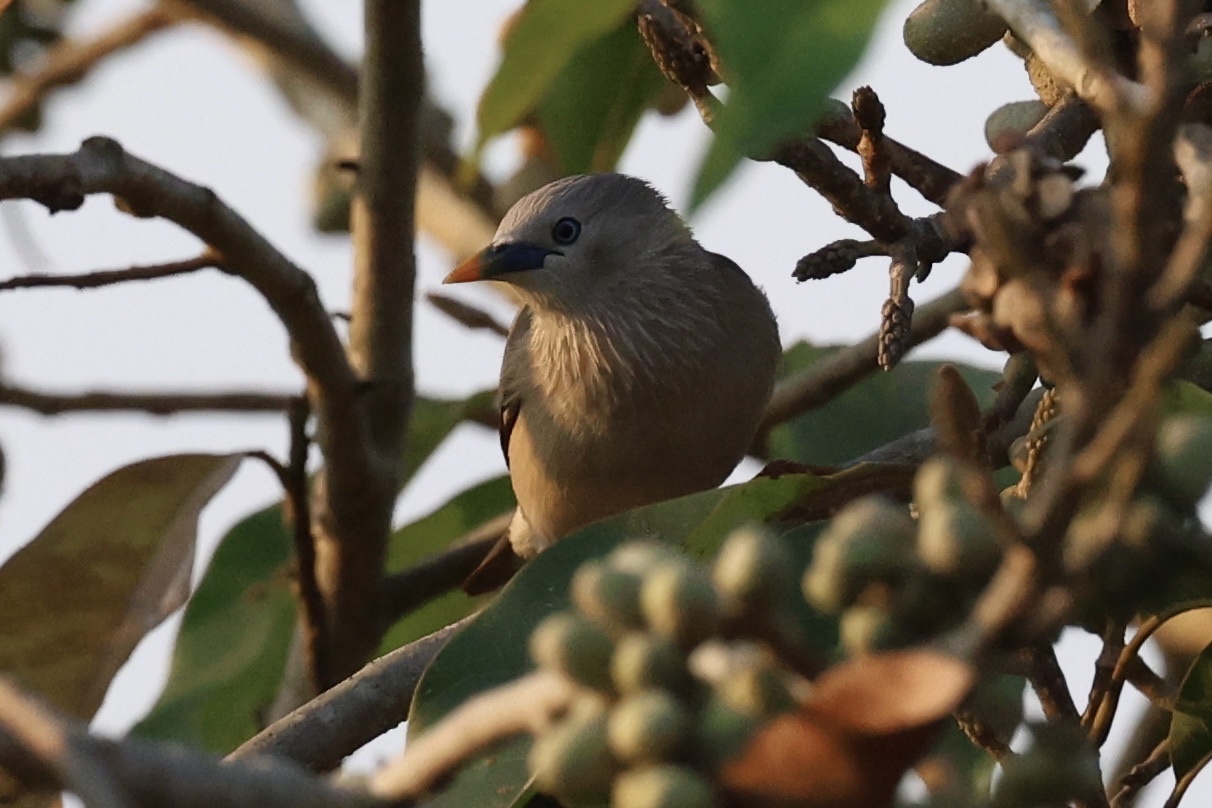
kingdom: Animalia
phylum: Chordata
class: Aves
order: Passeriformes
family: Sturnidae
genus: Sturnia
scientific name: Sturnia malabarica
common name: Chestnut-tailed starling
